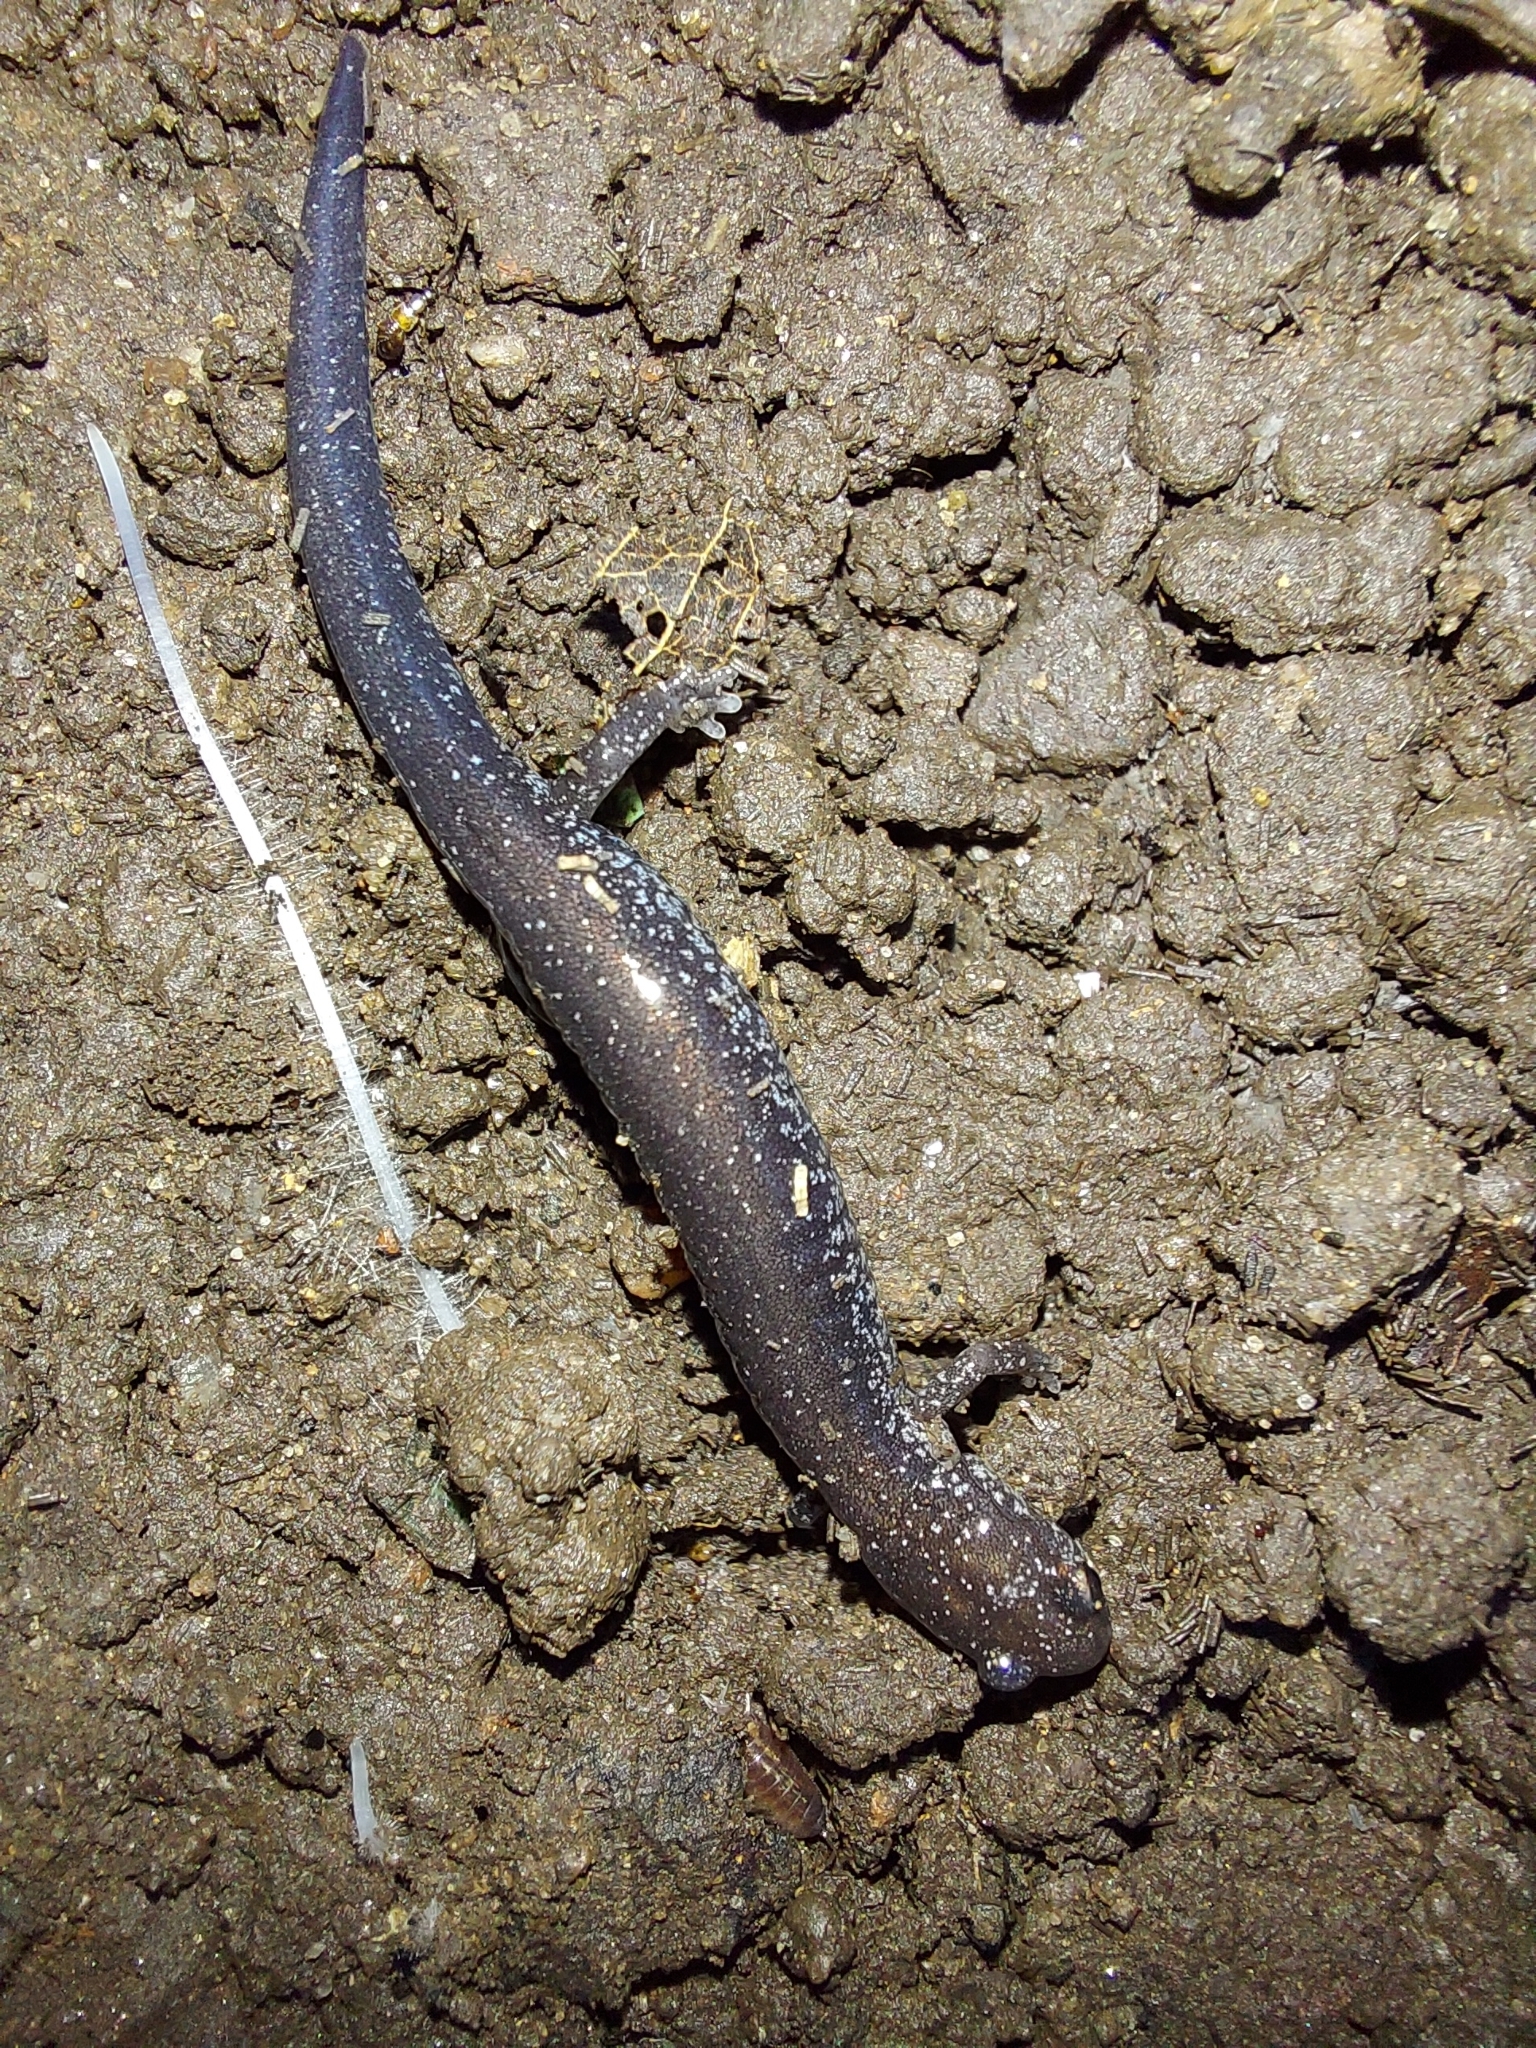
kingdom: Animalia
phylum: Chordata
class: Amphibia
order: Caudata
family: Plethodontidae
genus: Plethodon
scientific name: Plethodon cinereus
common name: Redback salamander
